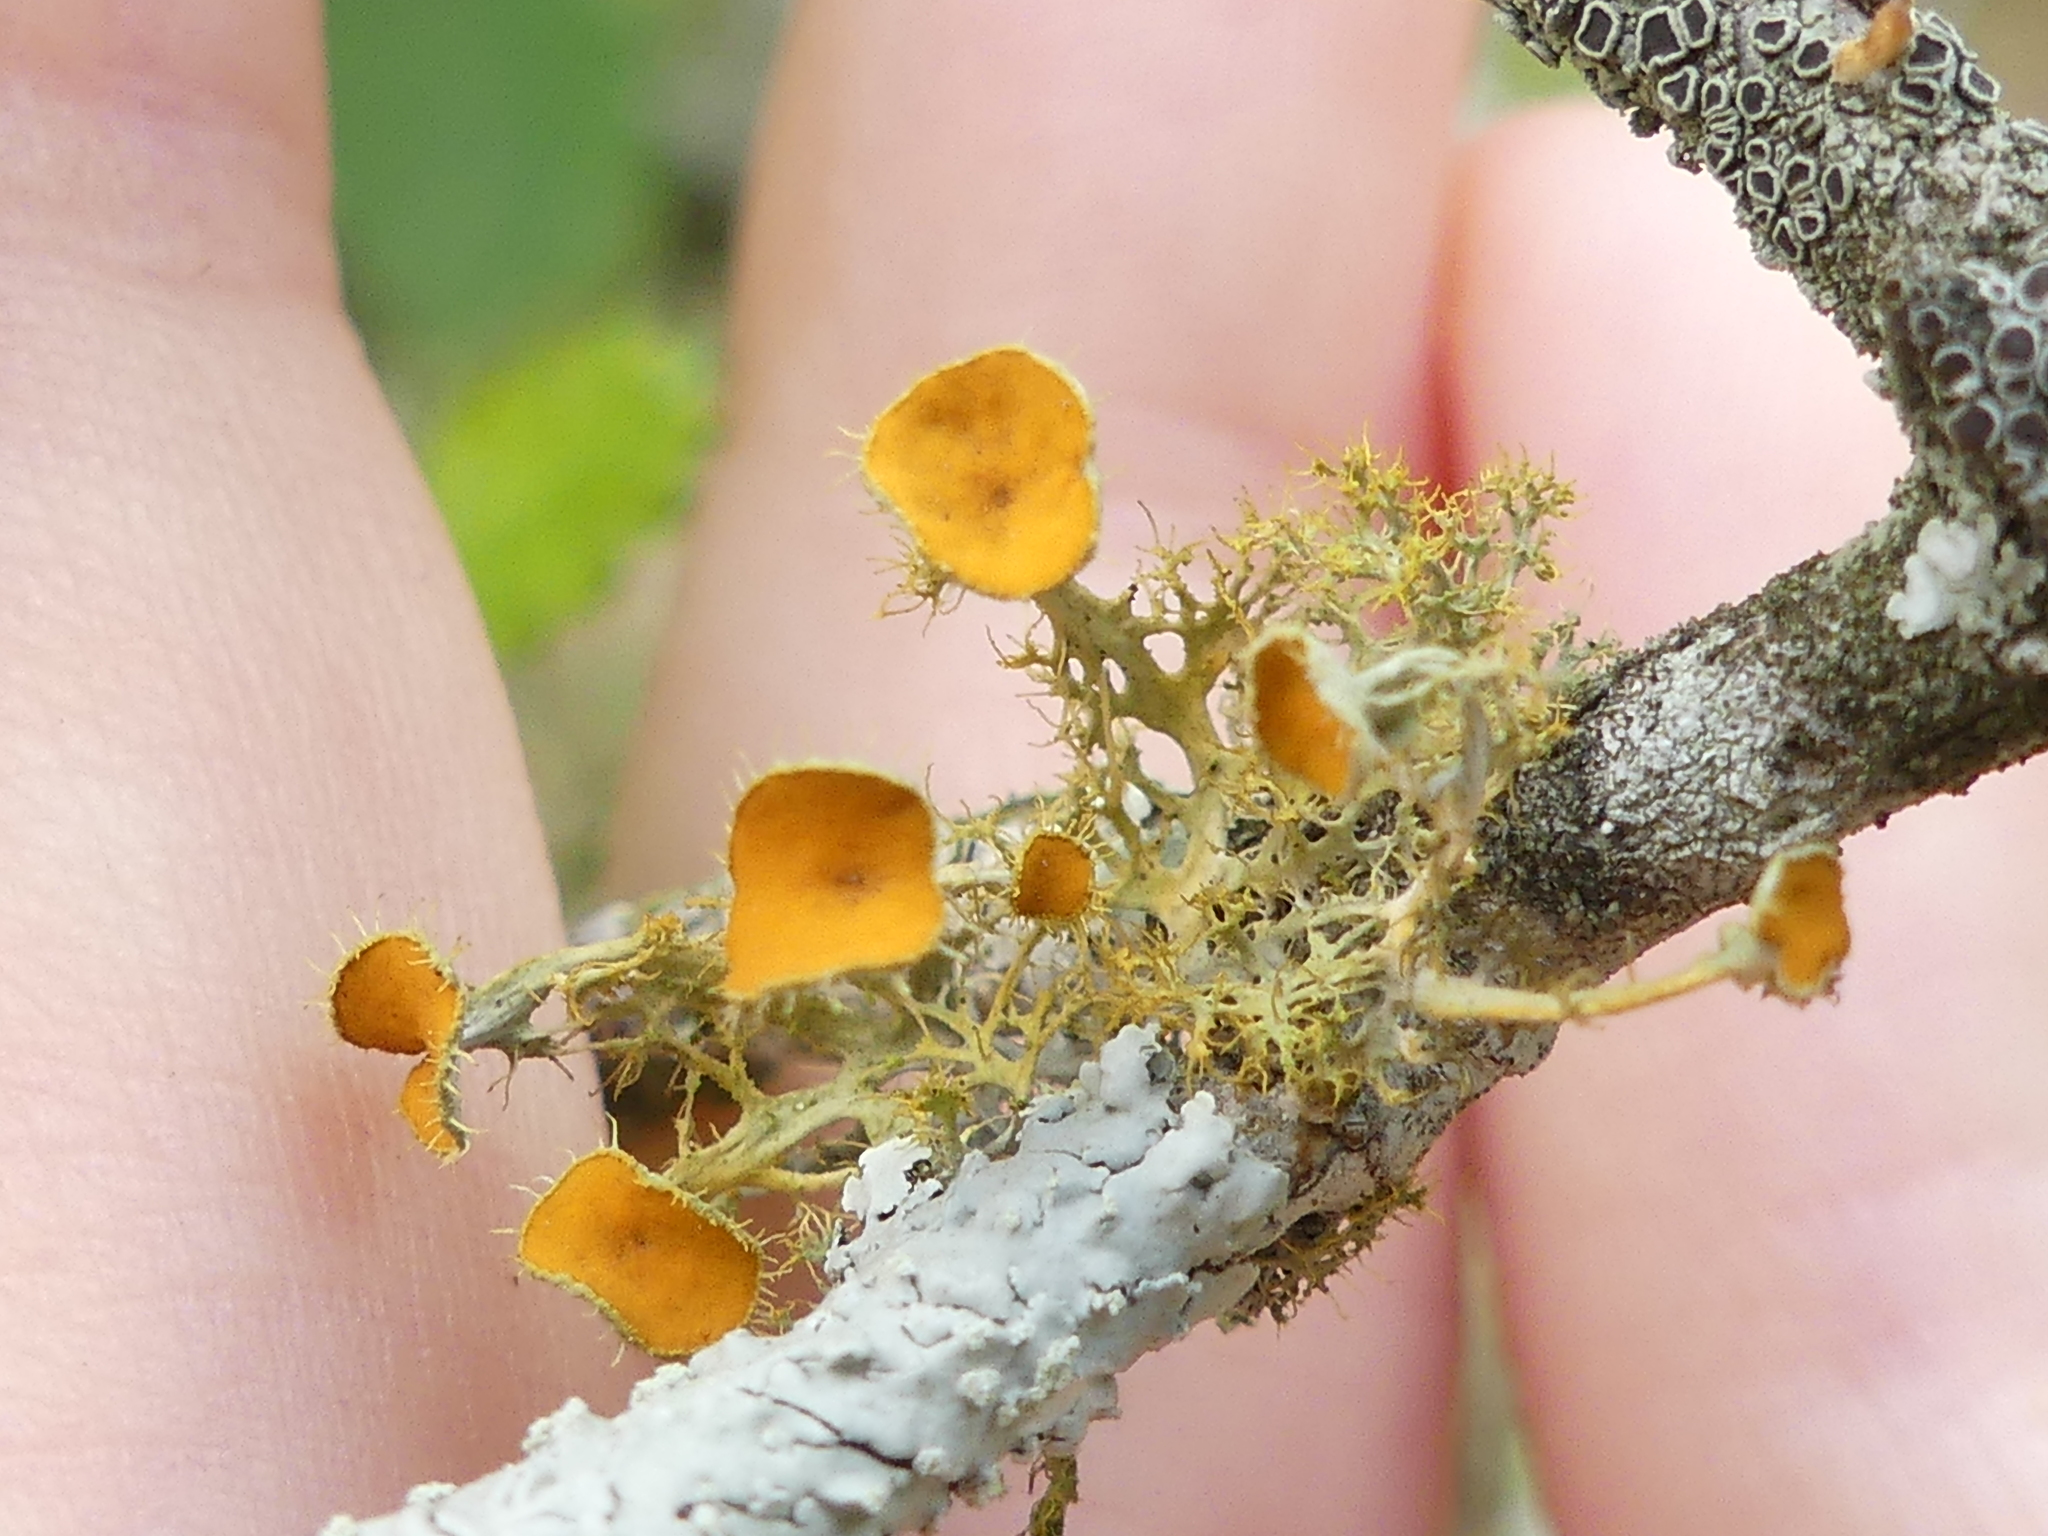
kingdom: Fungi
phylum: Ascomycota
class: Lecanoromycetes
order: Teloschistales
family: Teloschistaceae
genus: Niorma
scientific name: Niorma chrysophthalma
